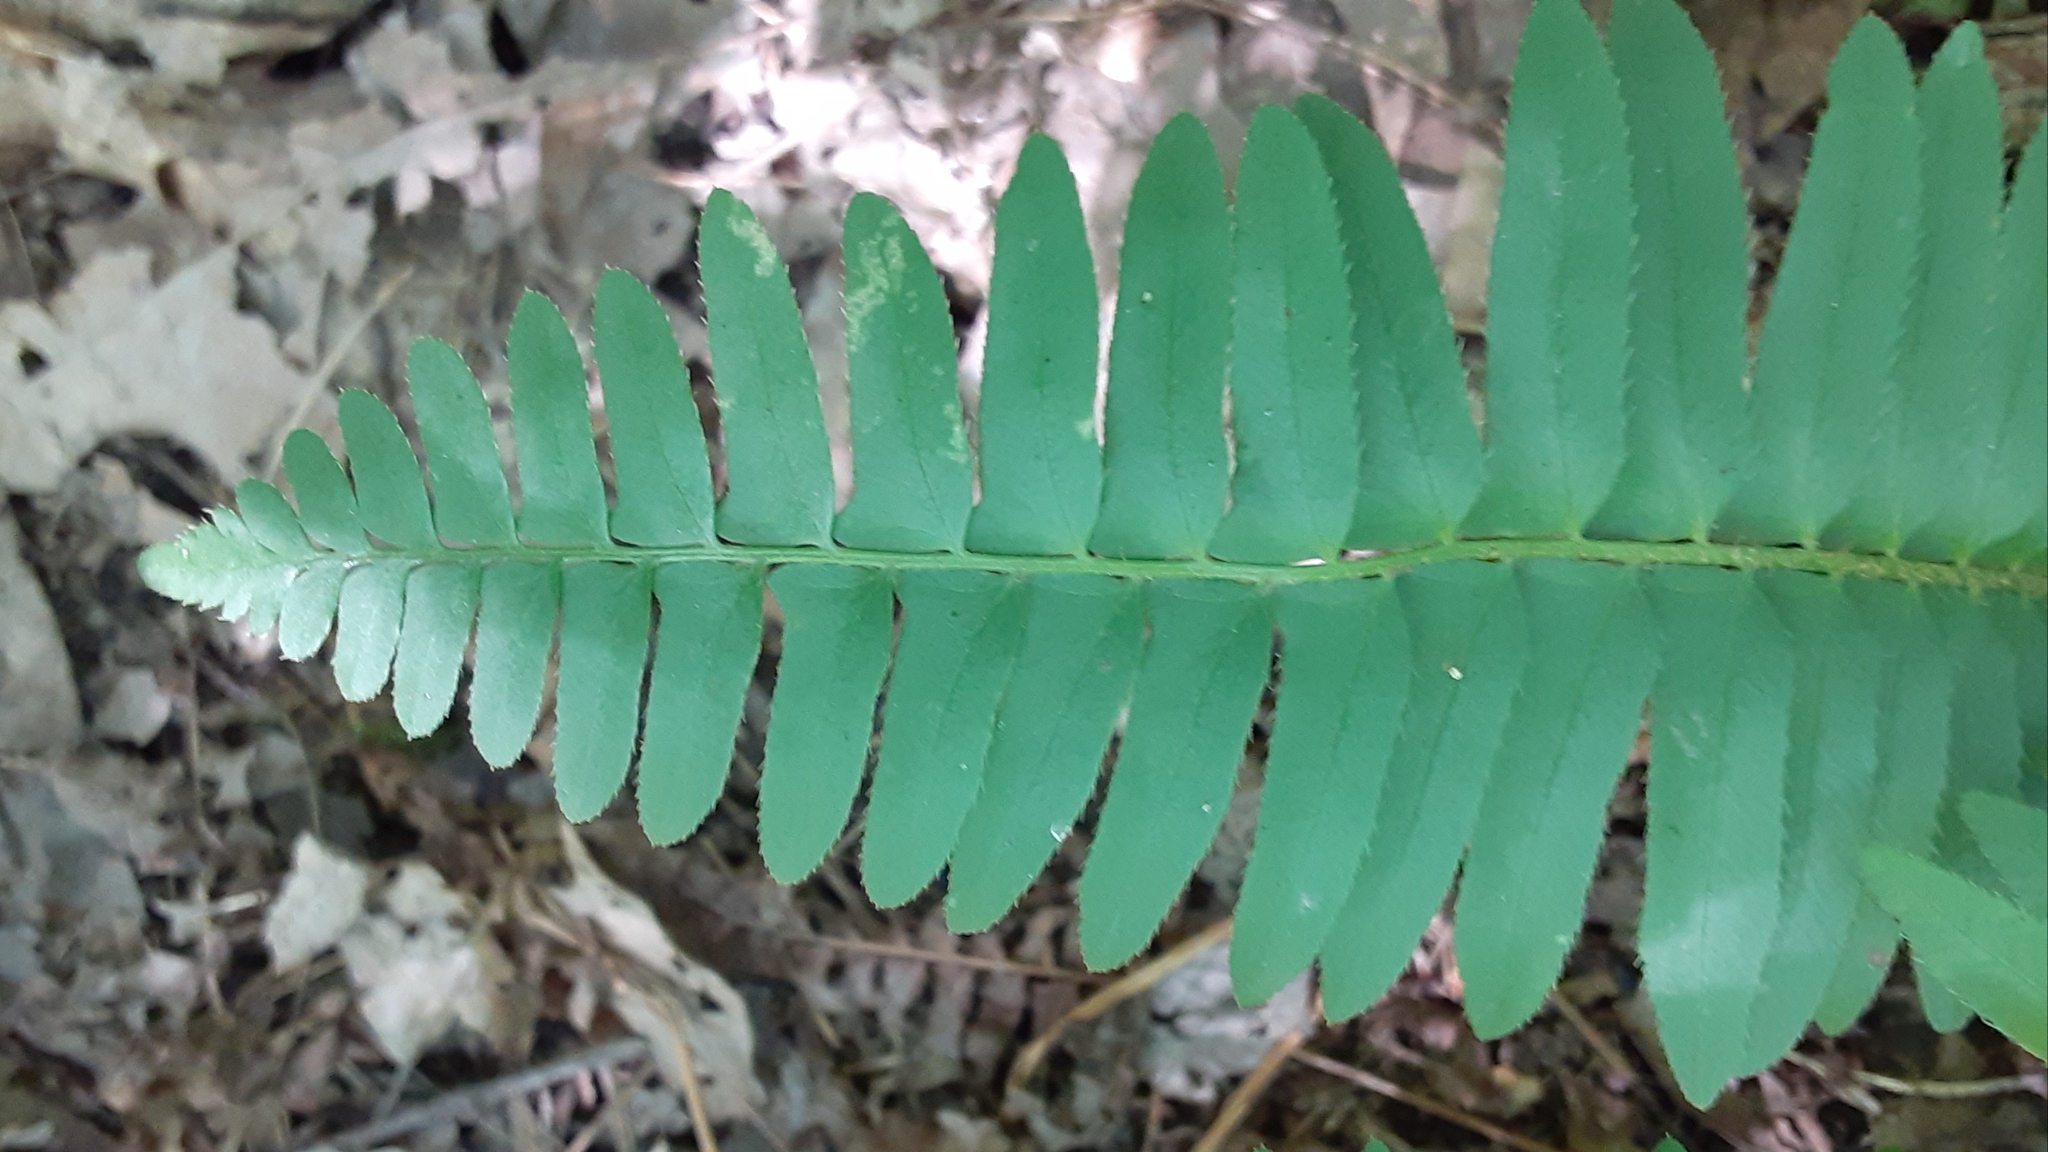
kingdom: Plantae
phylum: Tracheophyta
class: Polypodiopsida
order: Polypodiales
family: Dryopteridaceae
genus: Polystichum
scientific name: Polystichum acrostichoides
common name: Christmas fern
